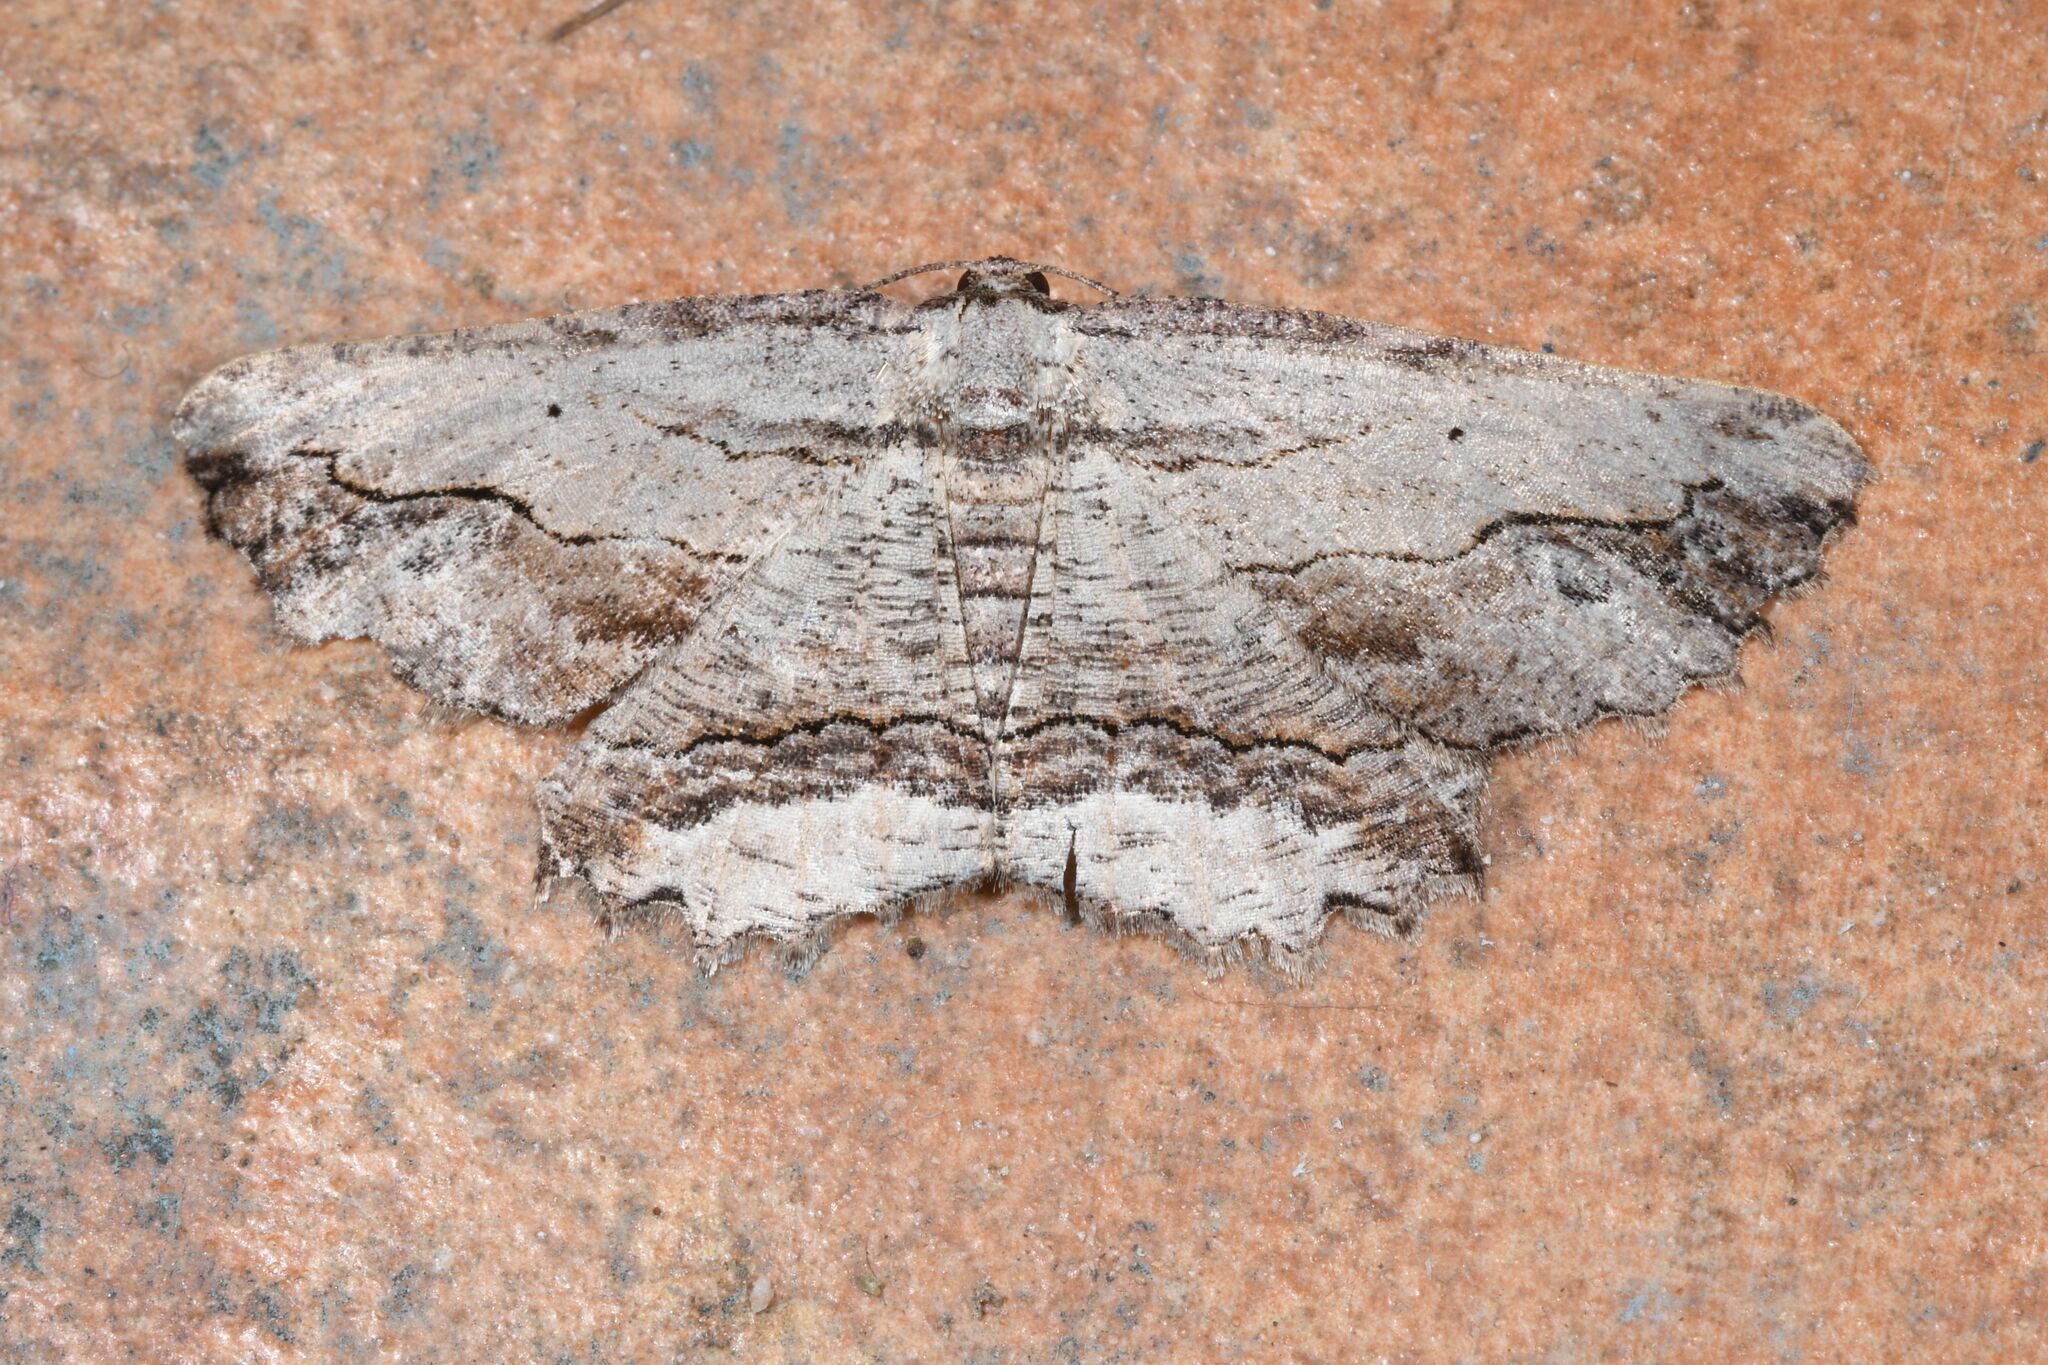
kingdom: Animalia
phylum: Arthropoda
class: Insecta
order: Lepidoptera
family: Geometridae
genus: Menophra
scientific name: Menophra abruptaria
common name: Waved umber
